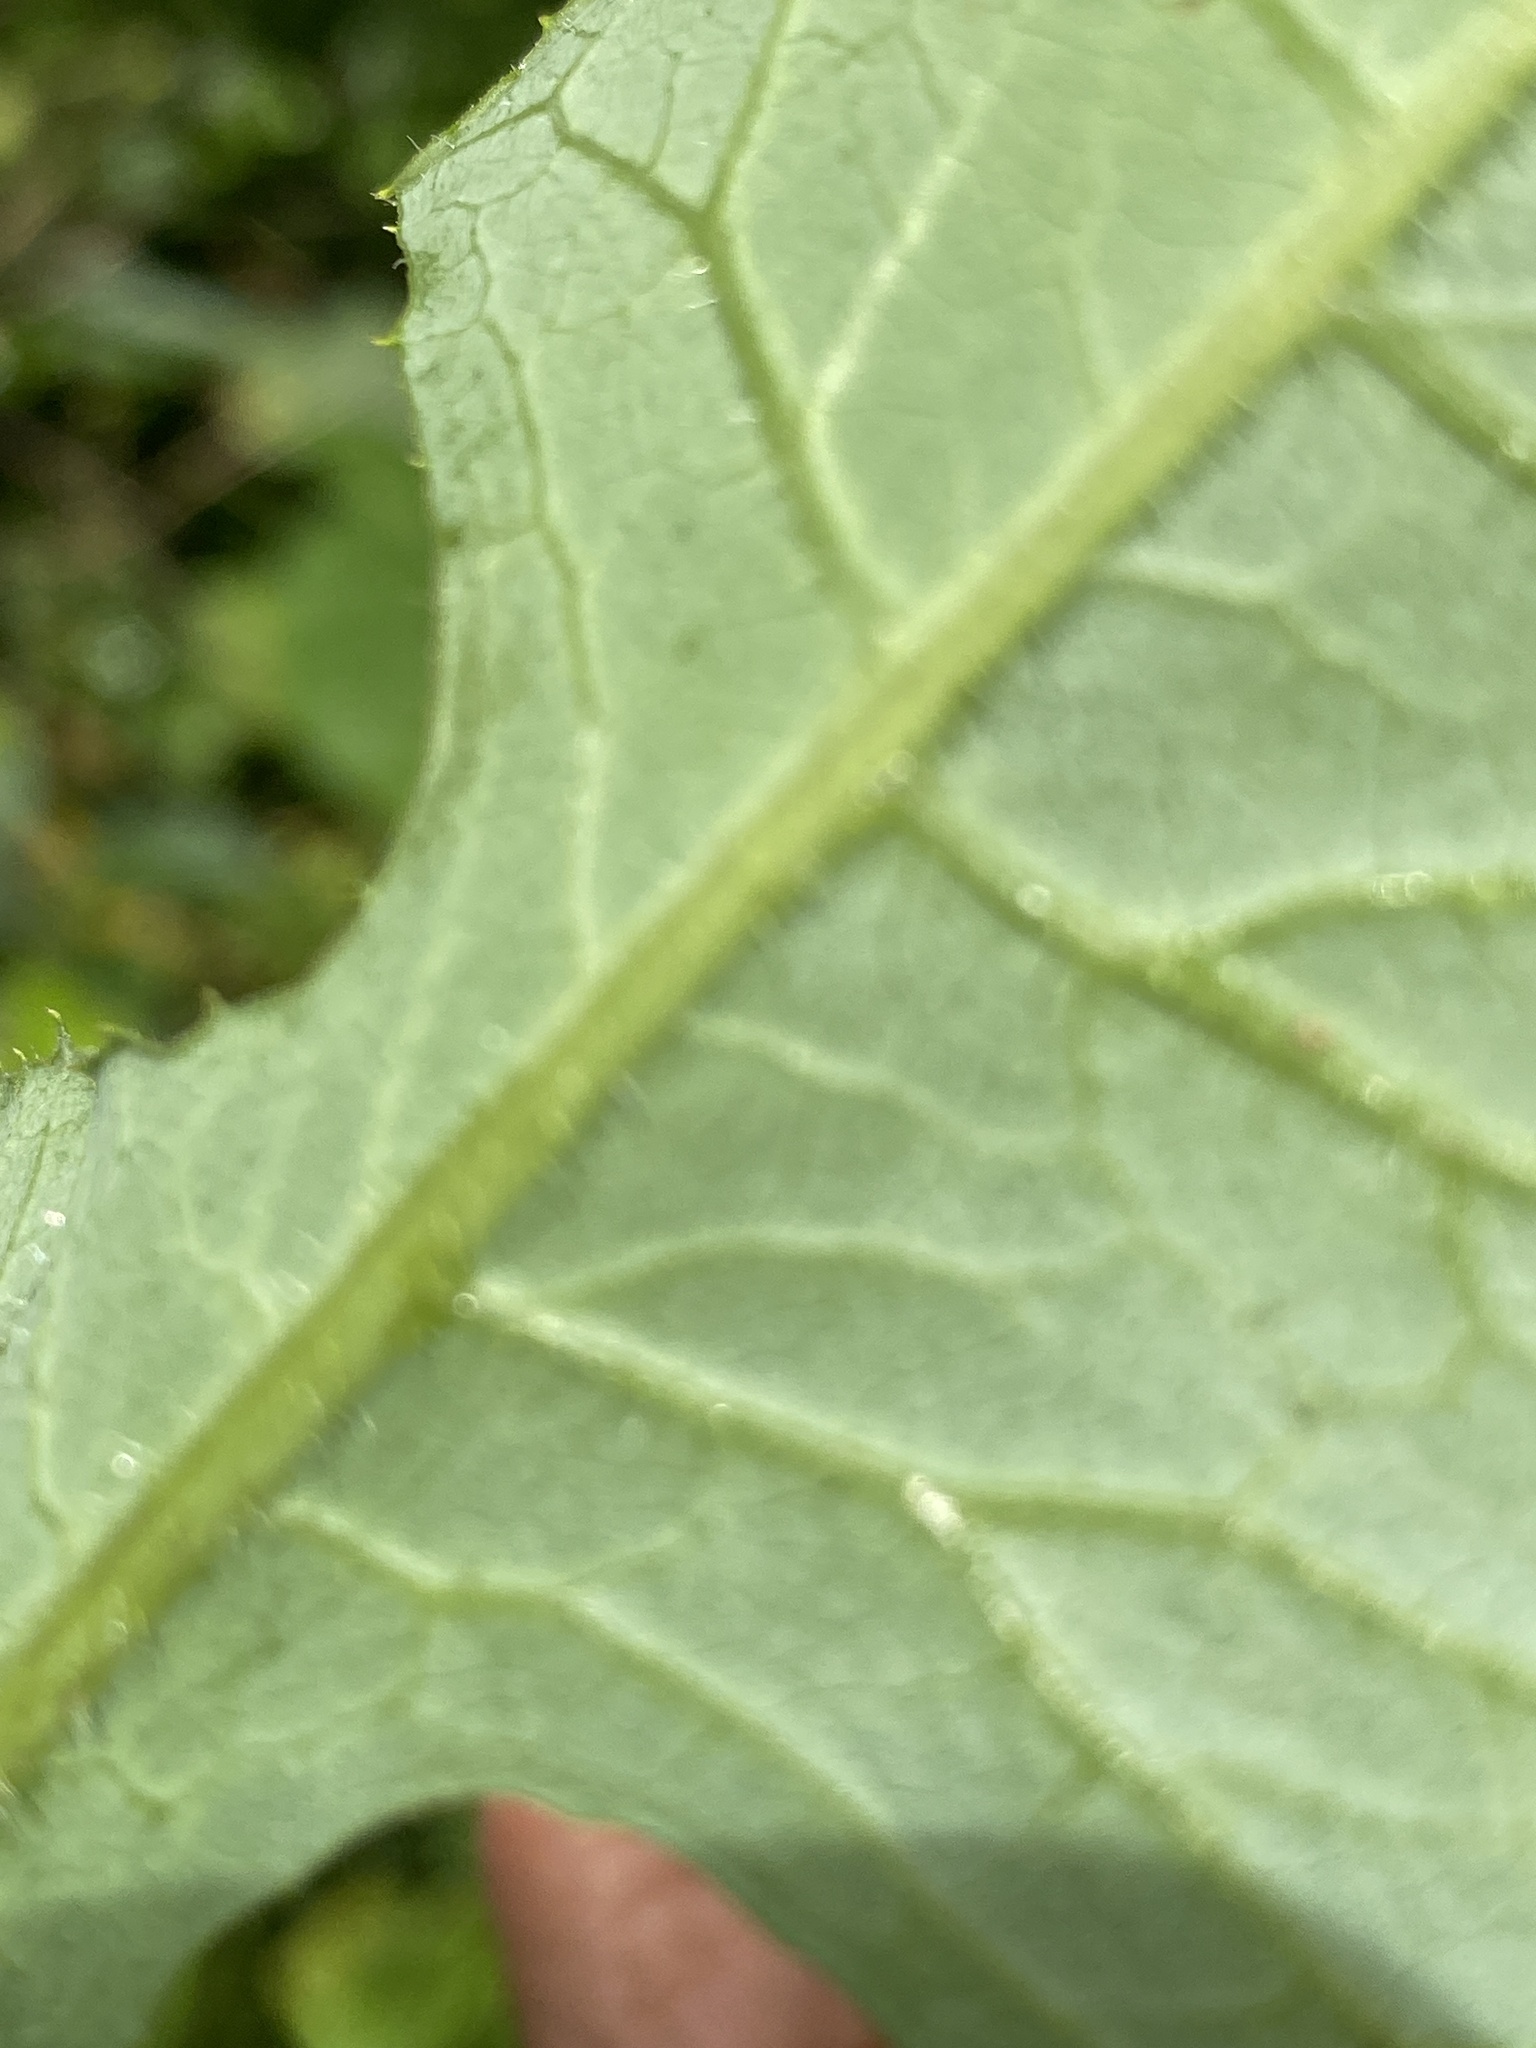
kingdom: Plantae
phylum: Tracheophyta
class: Magnoliopsida
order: Asterales
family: Asteraceae
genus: Lactuca
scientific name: Lactuca biennis
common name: Blue wood lettuce
